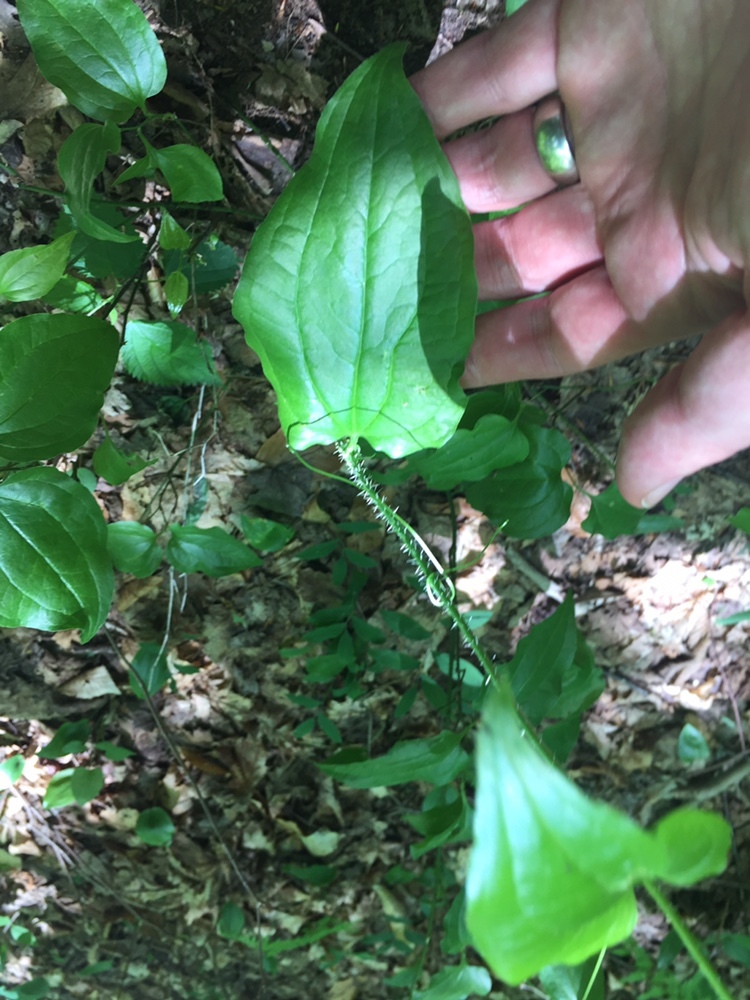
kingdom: Plantae
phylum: Tracheophyta
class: Liliopsida
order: Liliales
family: Smilacaceae
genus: Smilax
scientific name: Smilax tamnoides
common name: Hellfetter
